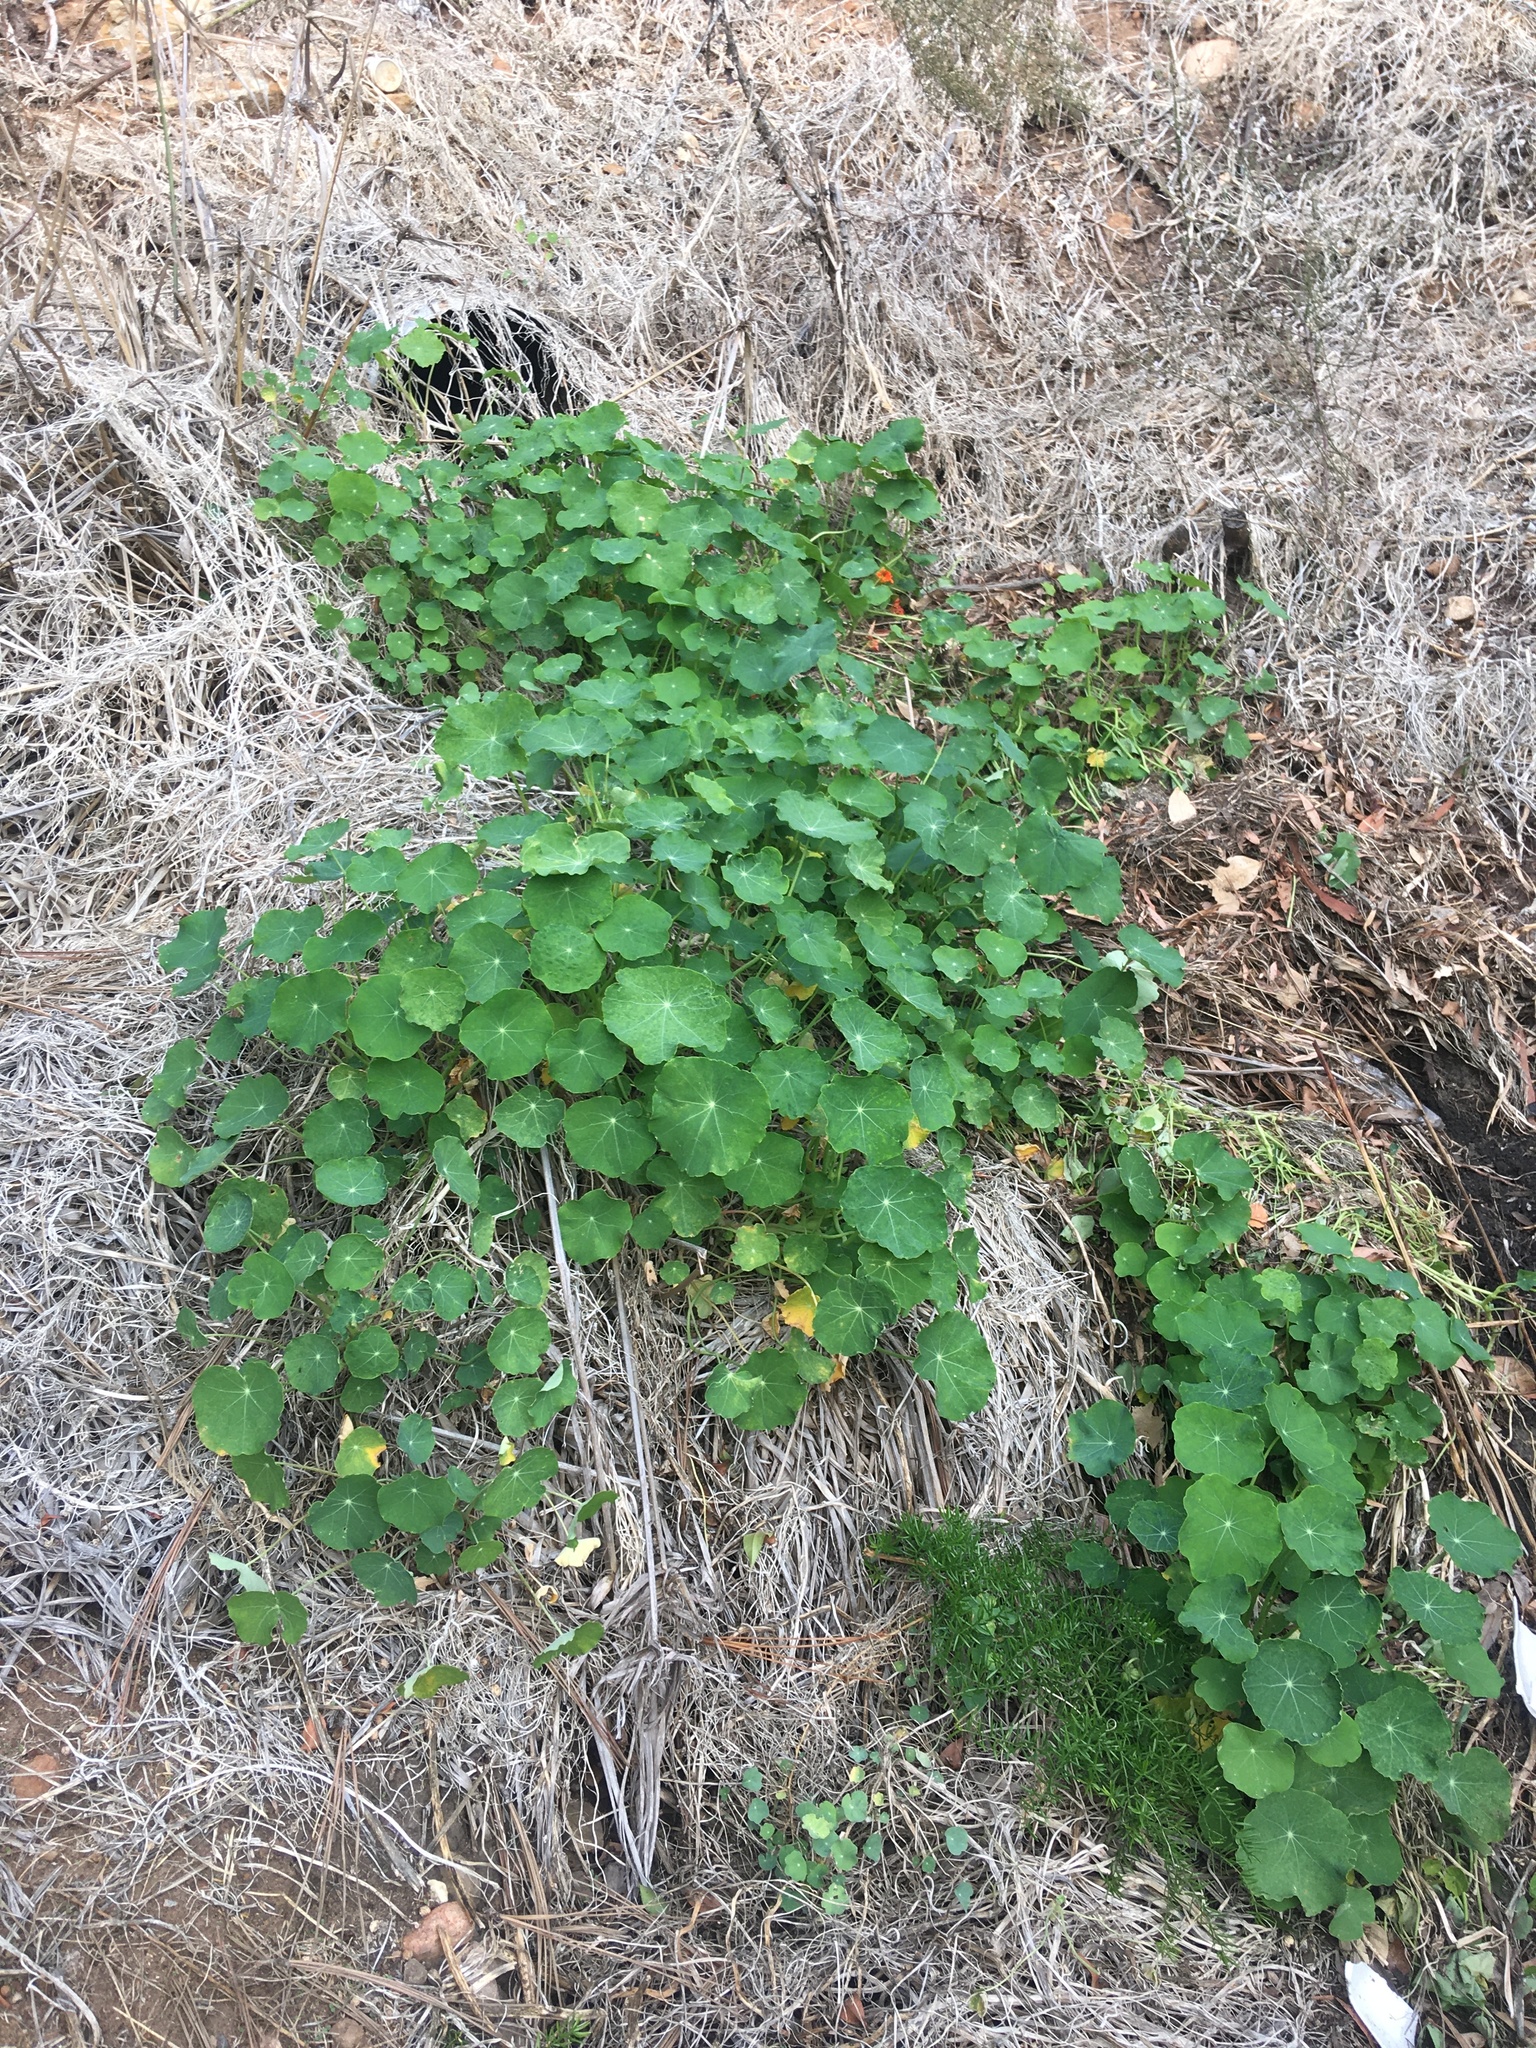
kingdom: Plantae
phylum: Tracheophyta
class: Magnoliopsida
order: Brassicales
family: Tropaeolaceae
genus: Tropaeolum
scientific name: Tropaeolum majus
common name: Nasturtium
